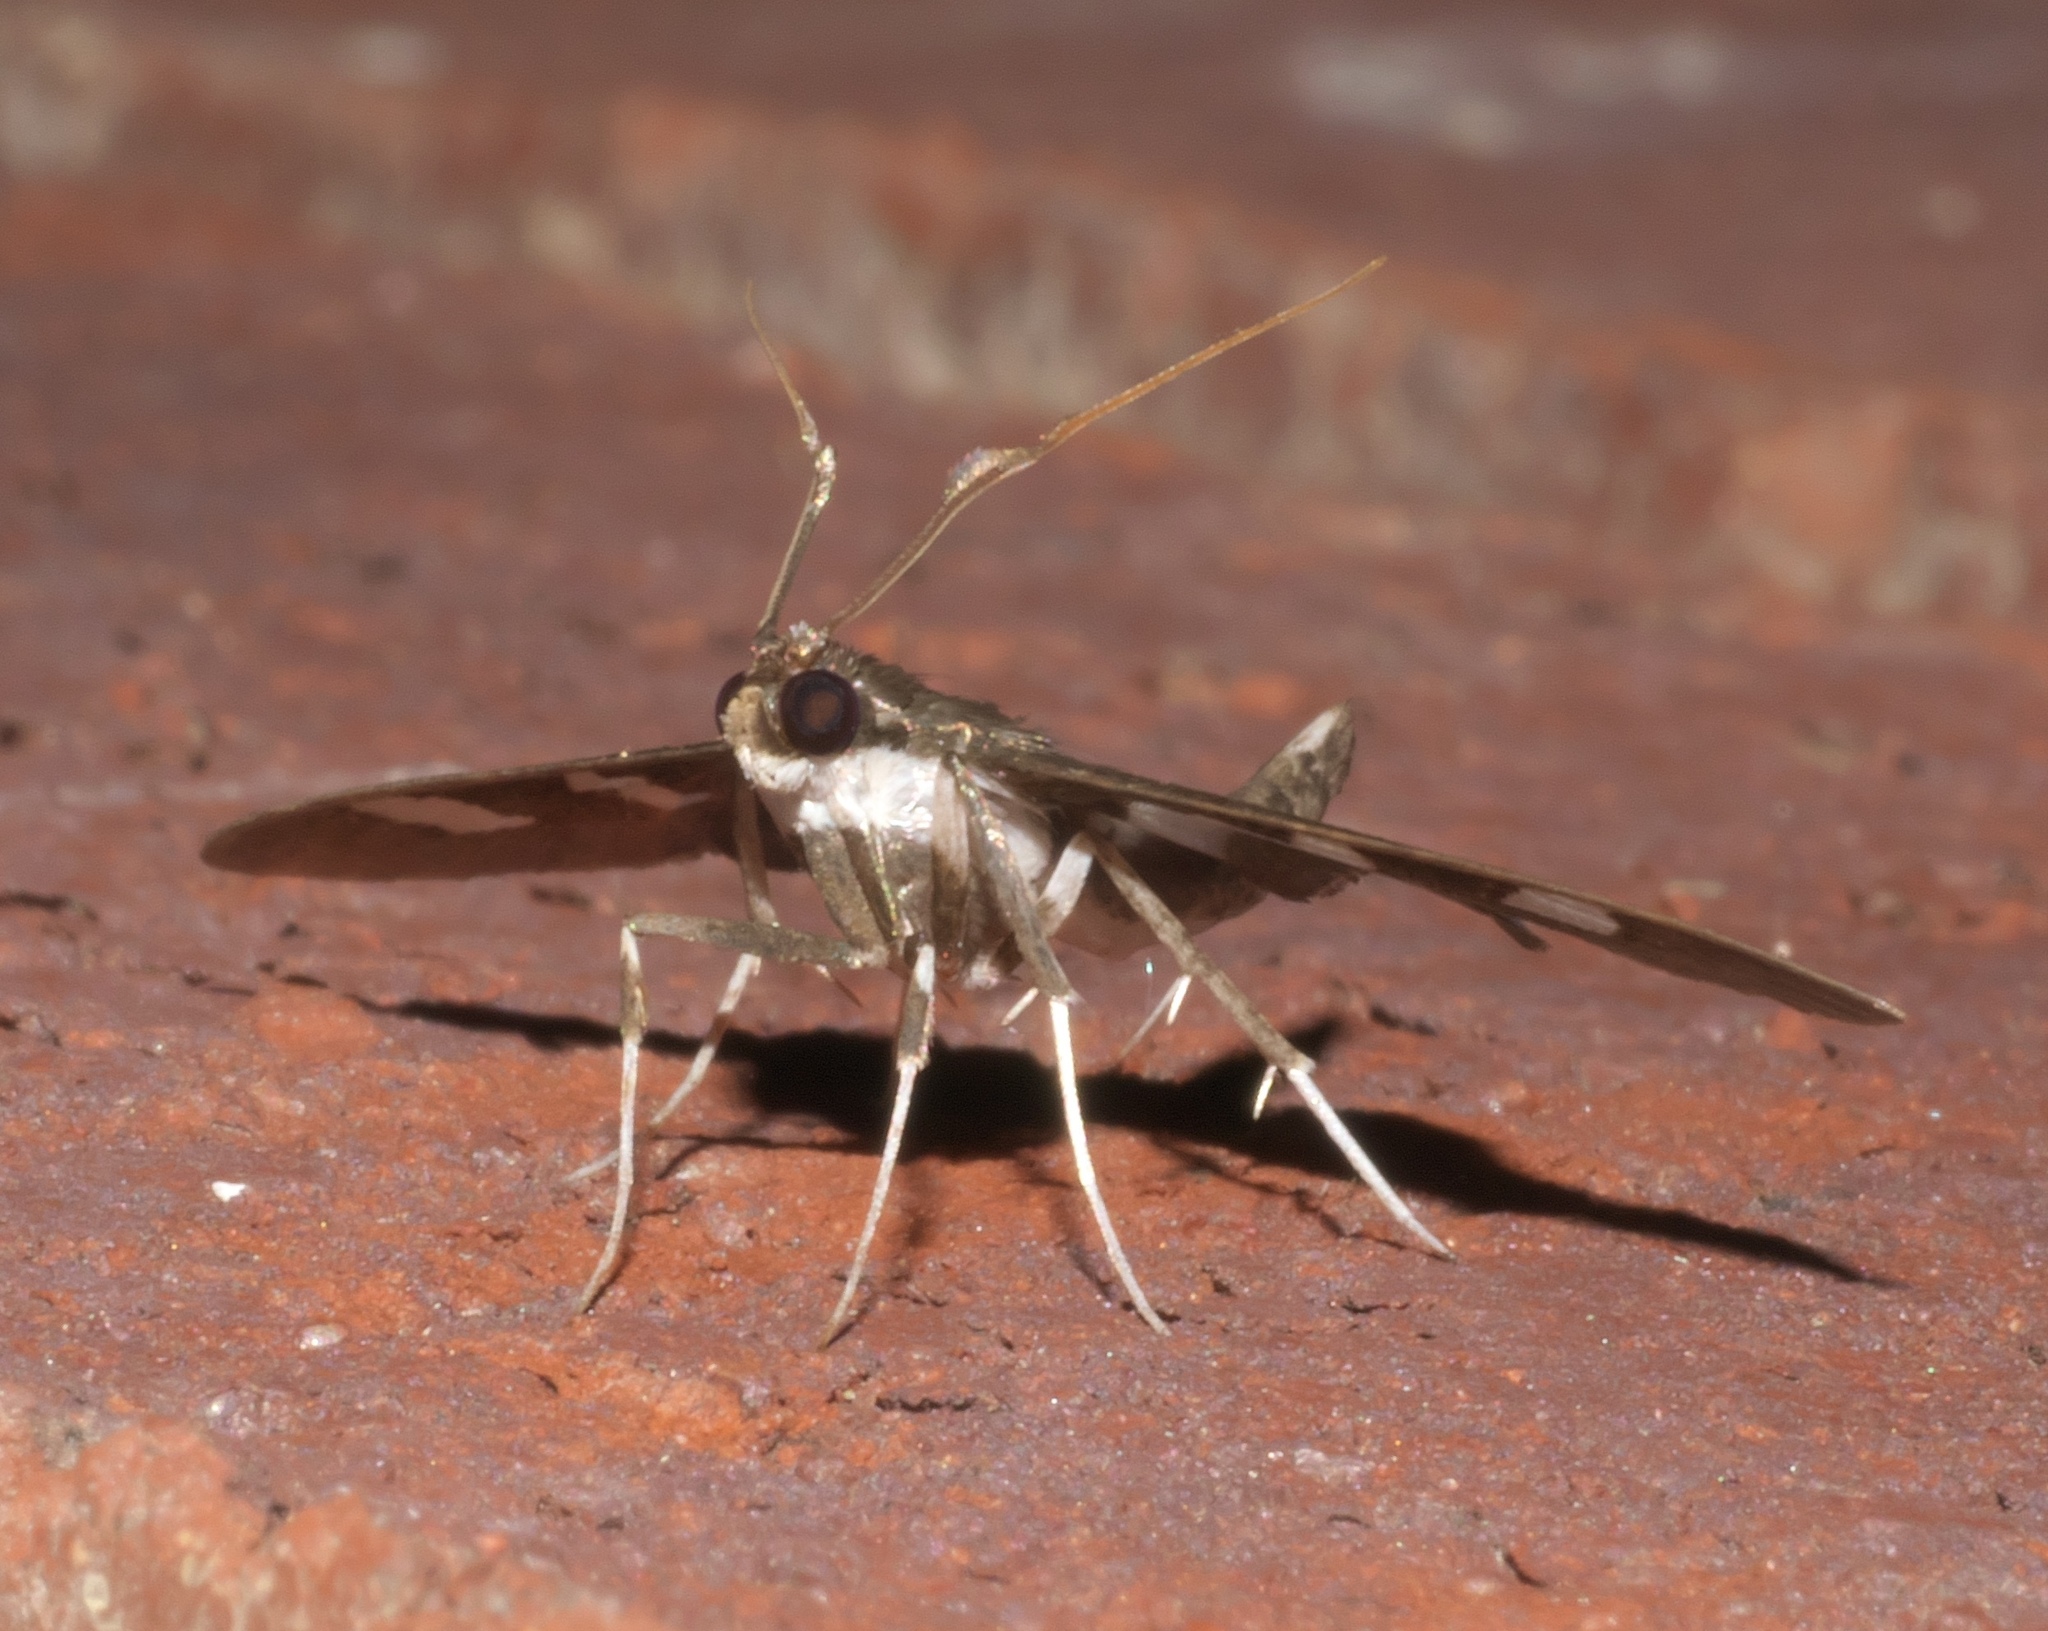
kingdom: Animalia
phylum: Arthropoda
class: Insecta
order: Lepidoptera
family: Crambidae
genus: Desmia
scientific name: Desmia funeralis
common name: Grape leaf folder moth
